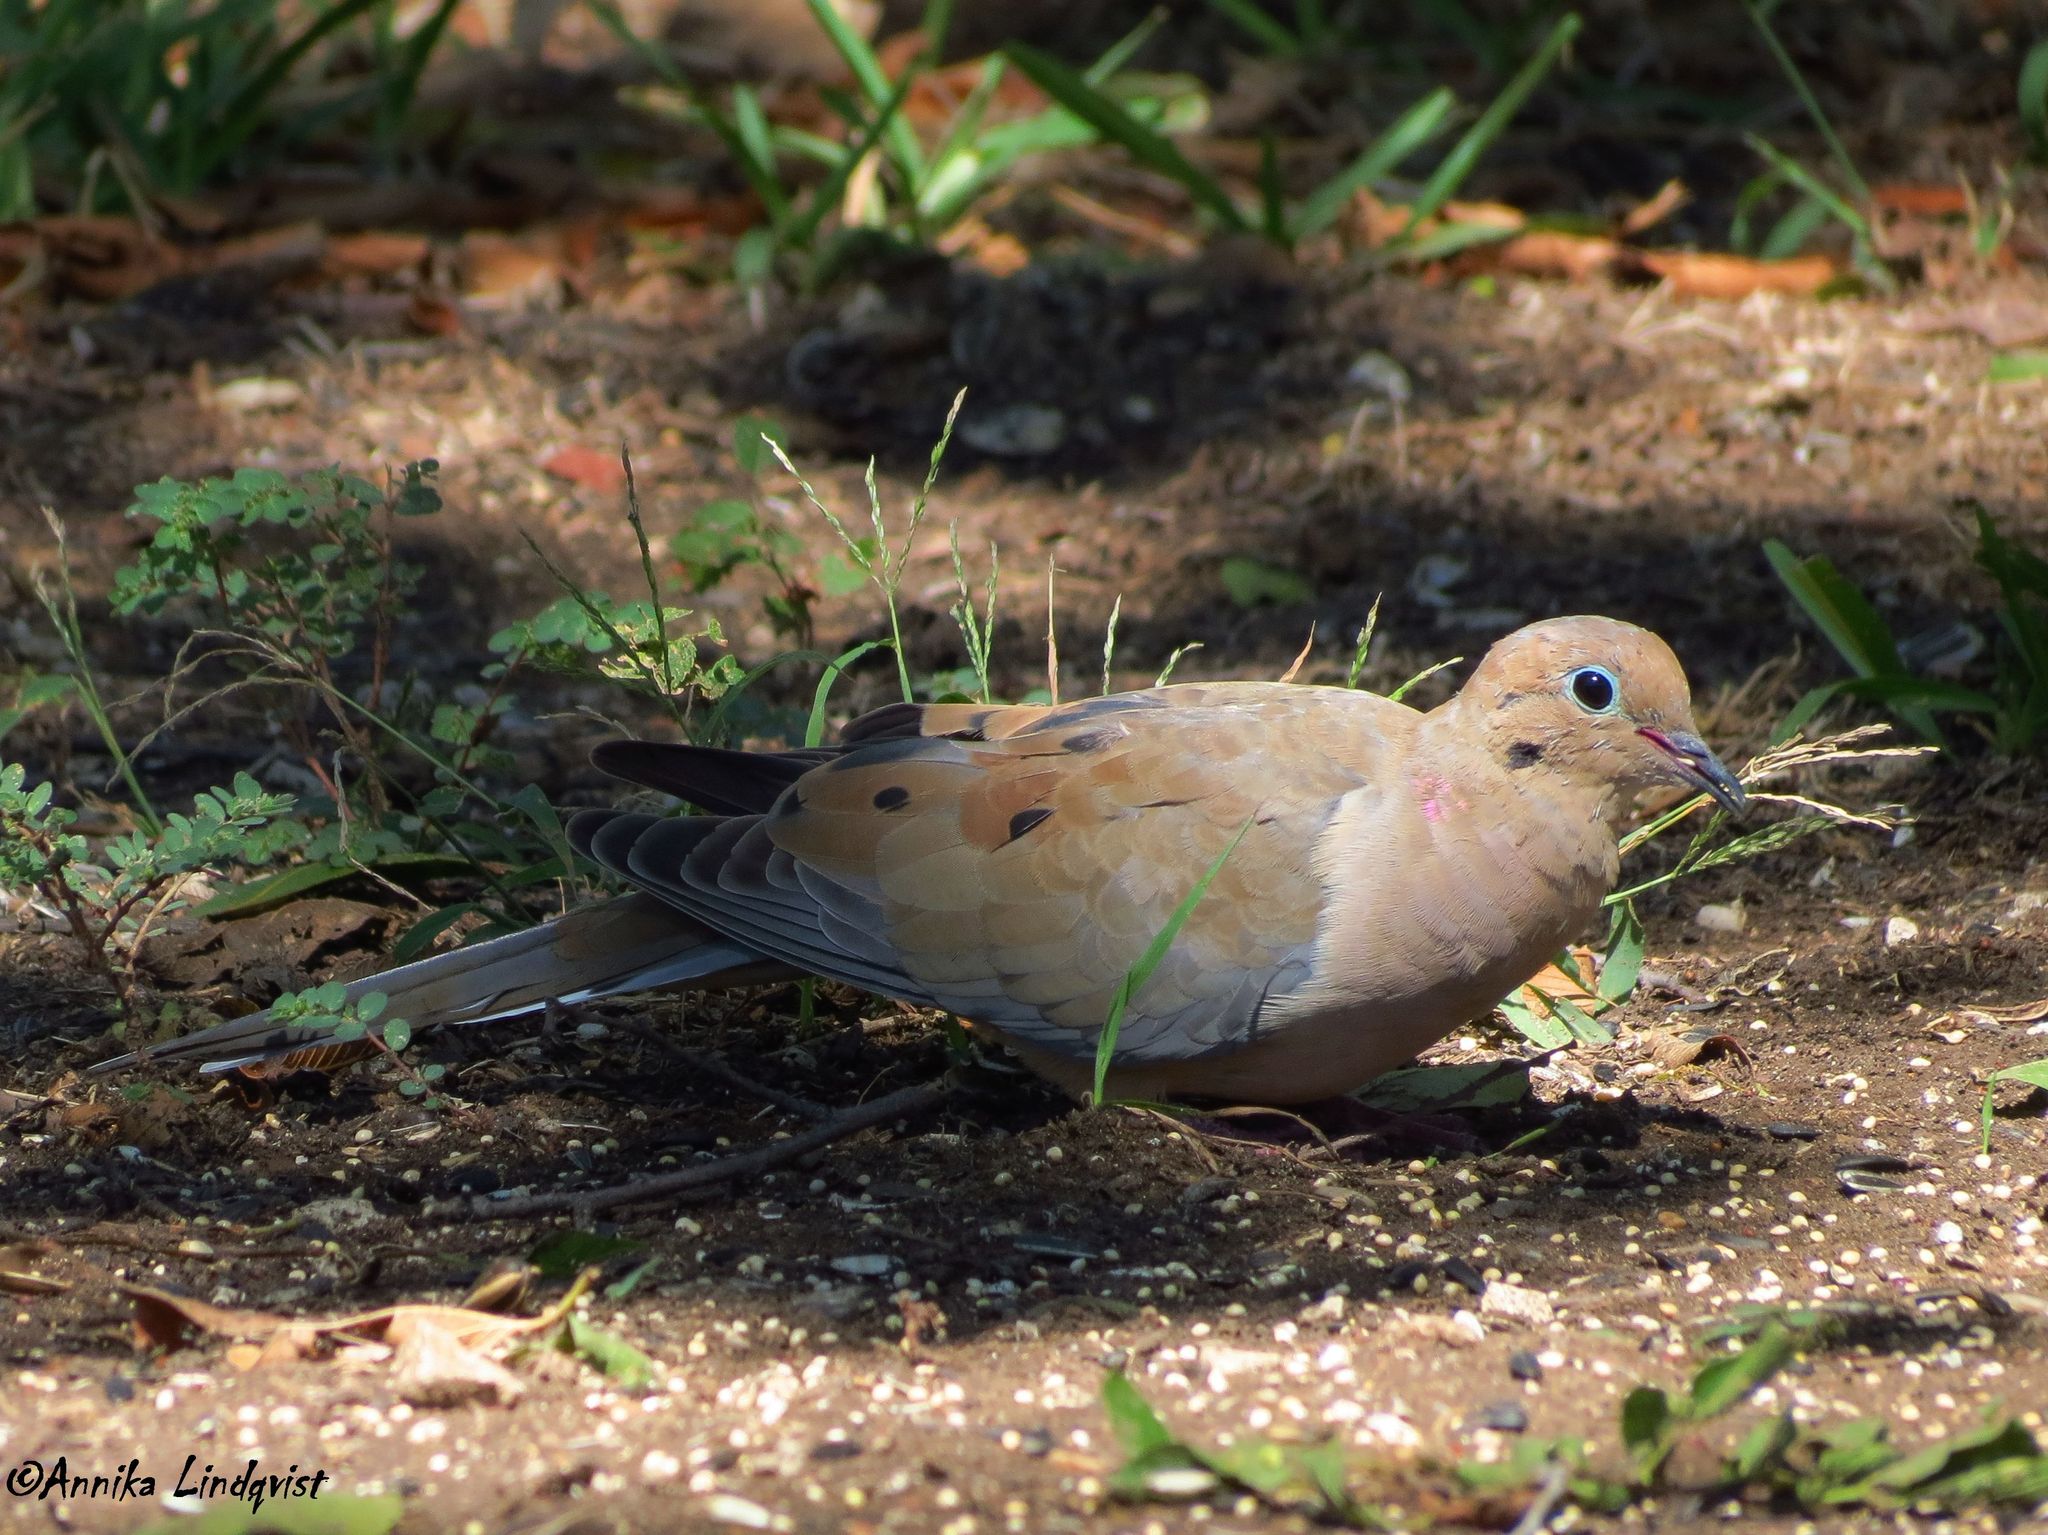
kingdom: Animalia
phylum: Chordata
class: Aves
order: Columbiformes
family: Columbidae
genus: Zenaida
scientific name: Zenaida macroura
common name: Mourning dove
